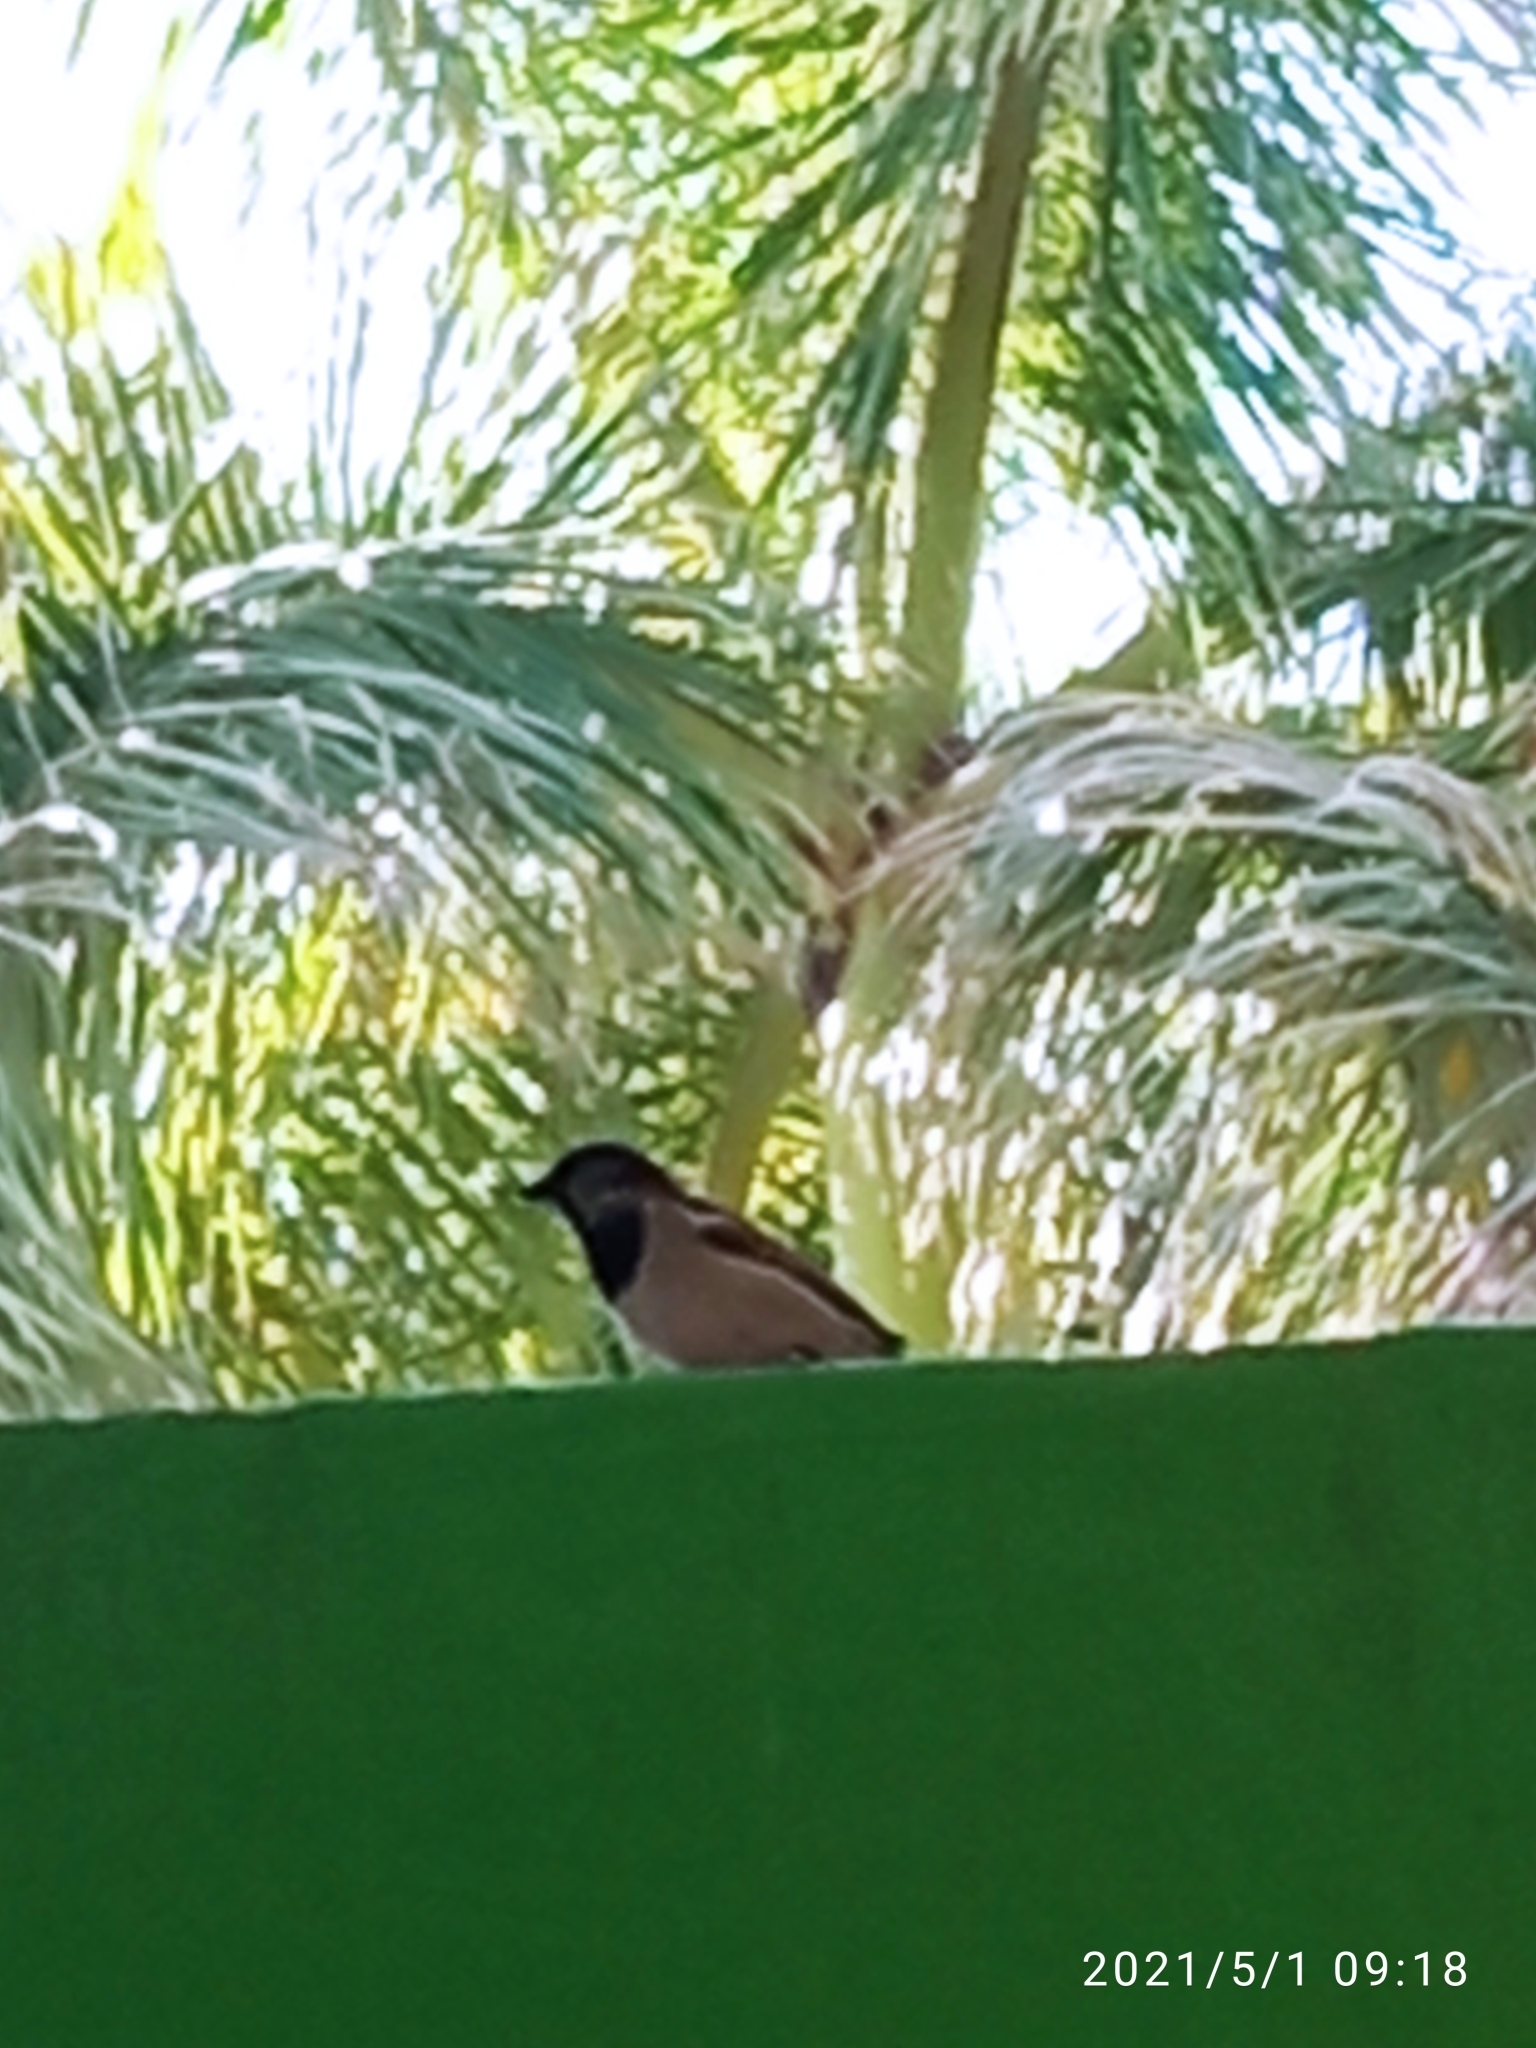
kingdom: Animalia
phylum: Chordata
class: Aves
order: Passeriformes
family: Passeridae
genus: Passer
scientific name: Passer domesticus
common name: House sparrow
